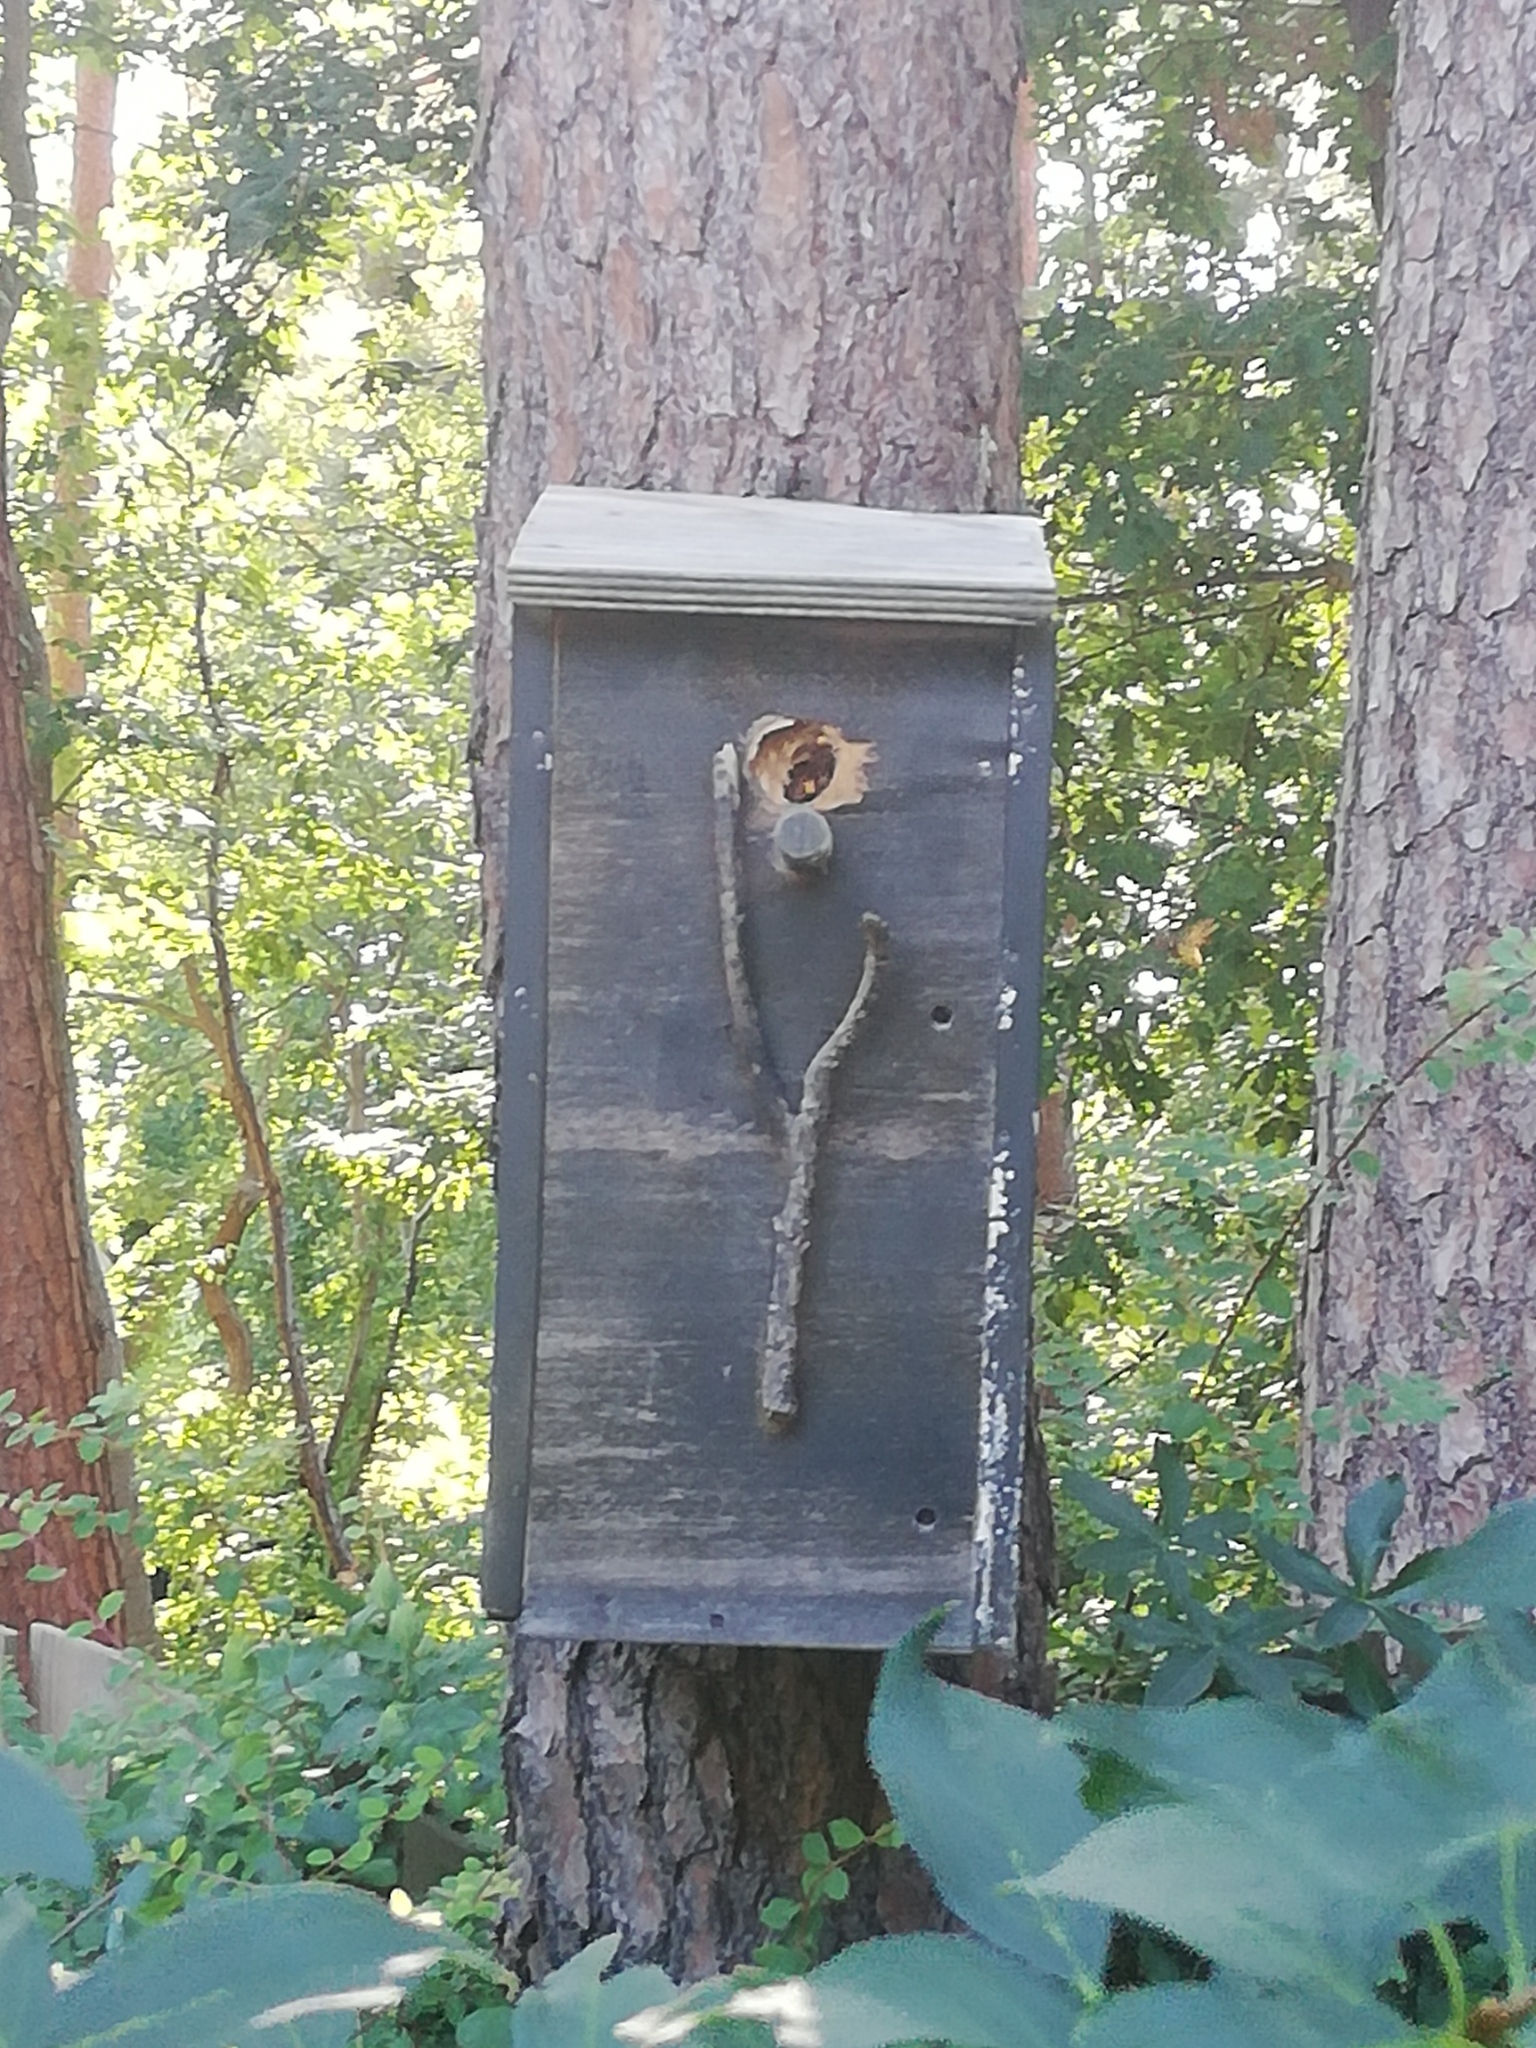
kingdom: Animalia
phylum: Arthropoda
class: Insecta
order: Hymenoptera
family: Vespidae
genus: Vespa
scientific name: Vespa crabro
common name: Hornet
